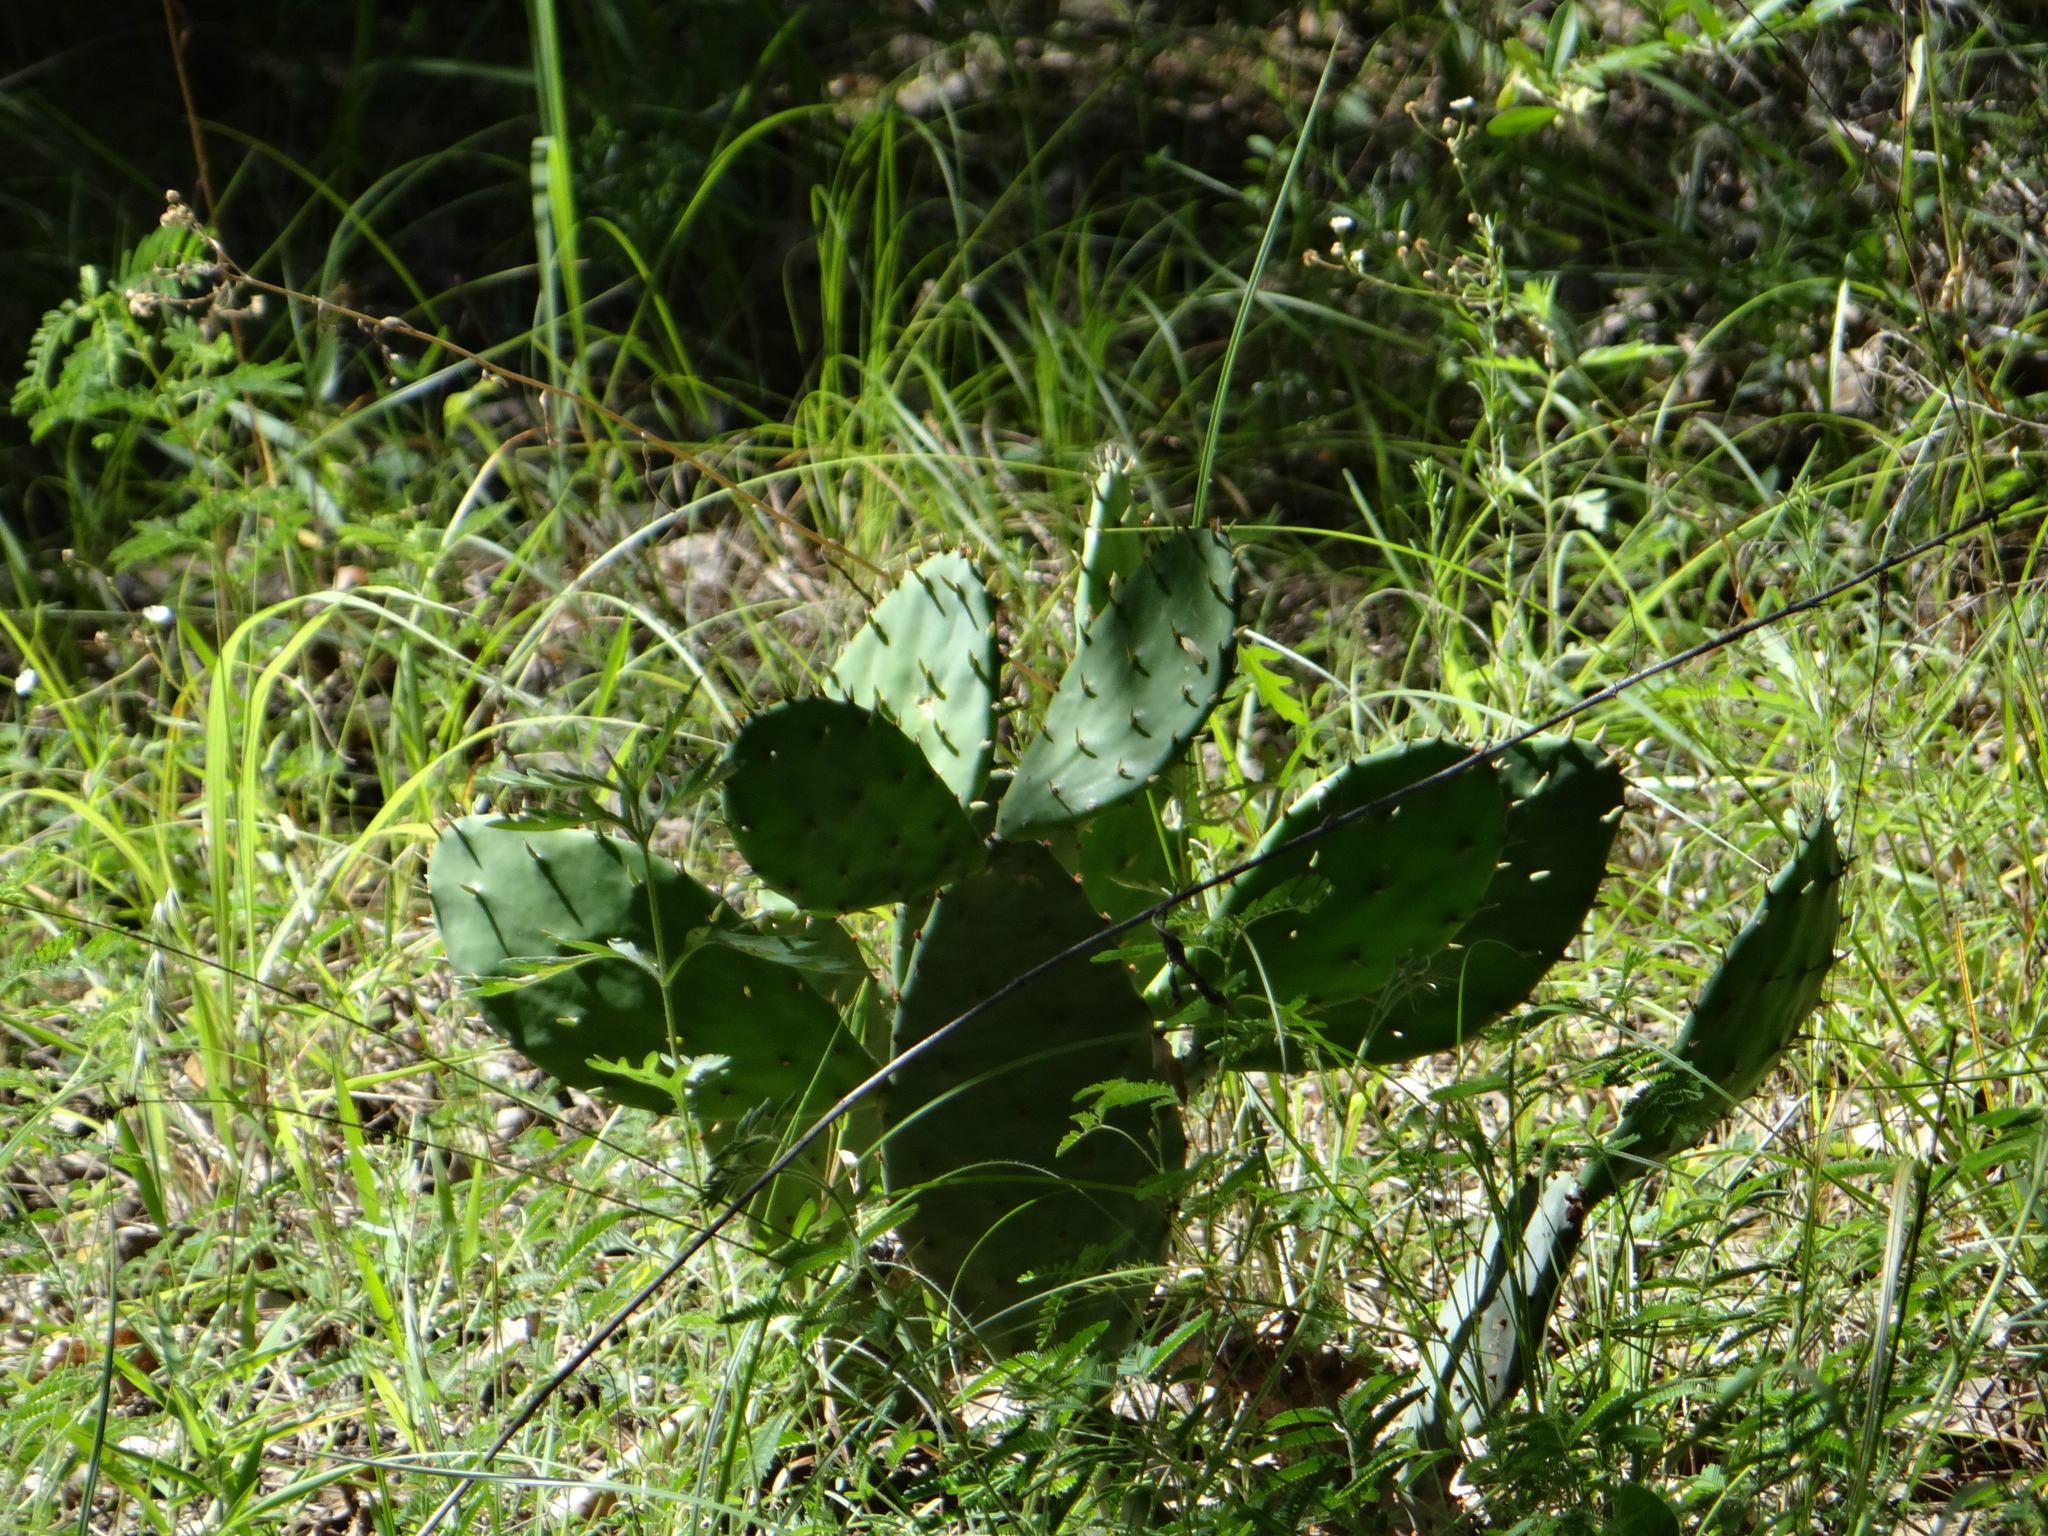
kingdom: Plantae
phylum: Tracheophyta
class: Magnoliopsida
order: Caryophyllales
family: Cactaceae
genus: Opuntia
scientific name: Opuntia macrorhiza
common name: Grassland pricklypear
